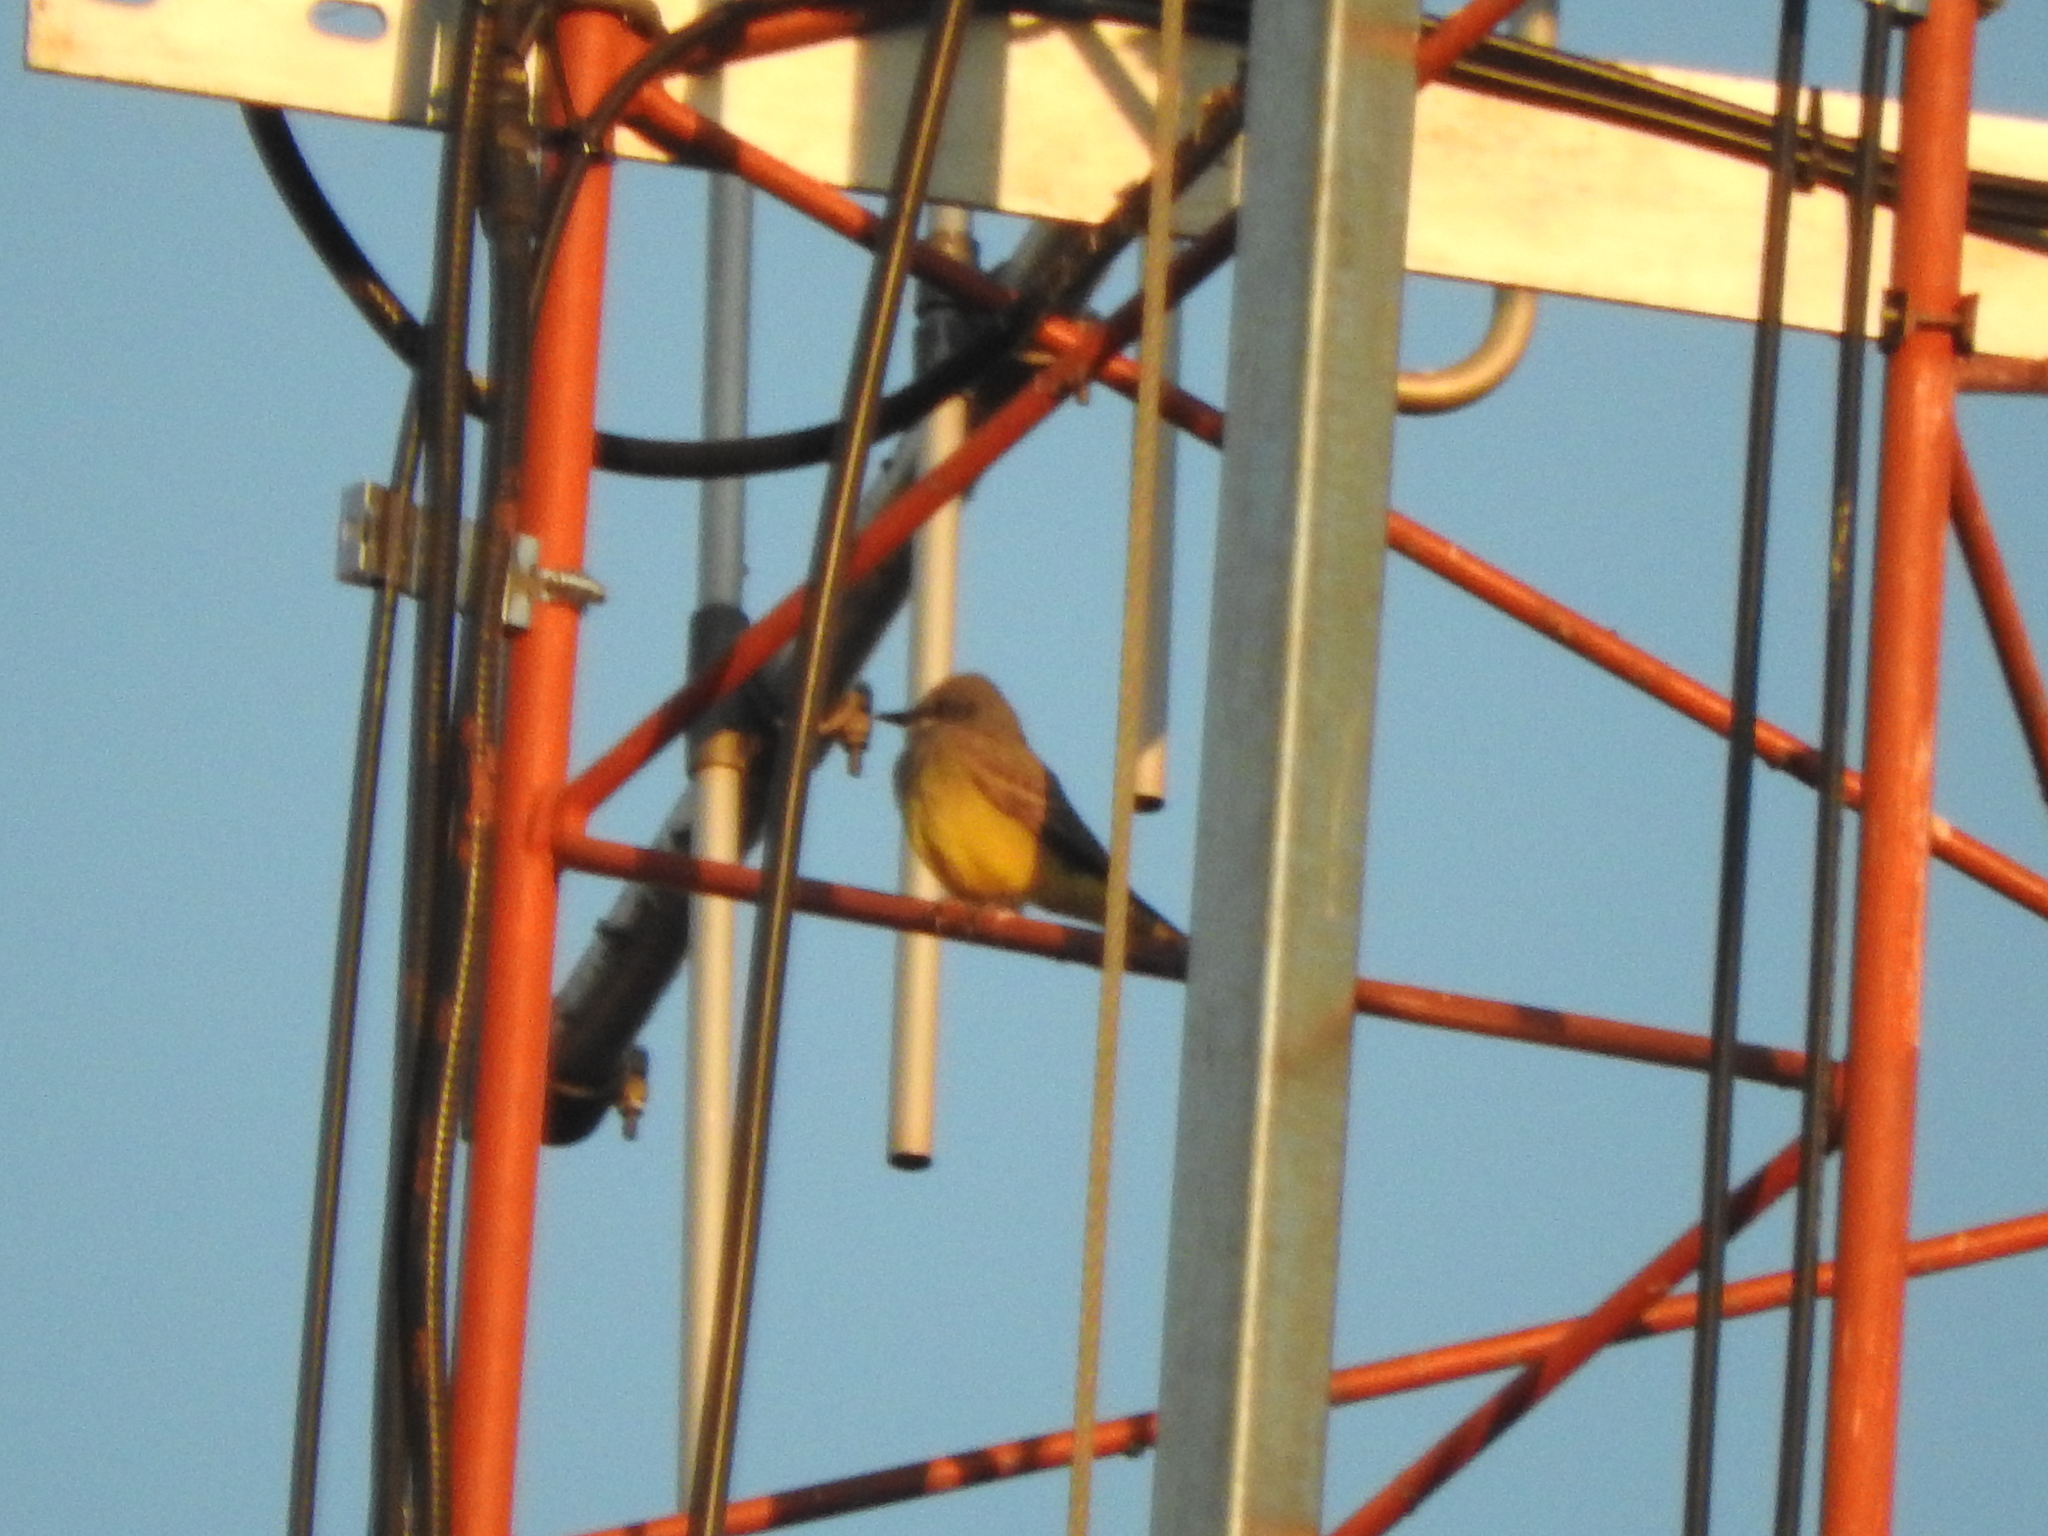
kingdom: Animalia
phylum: Chordata
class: Aves
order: Passeriformes
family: Tyrannidae
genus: Tyrannus
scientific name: Tyrannus vociferans
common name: Cassin's kingbird
